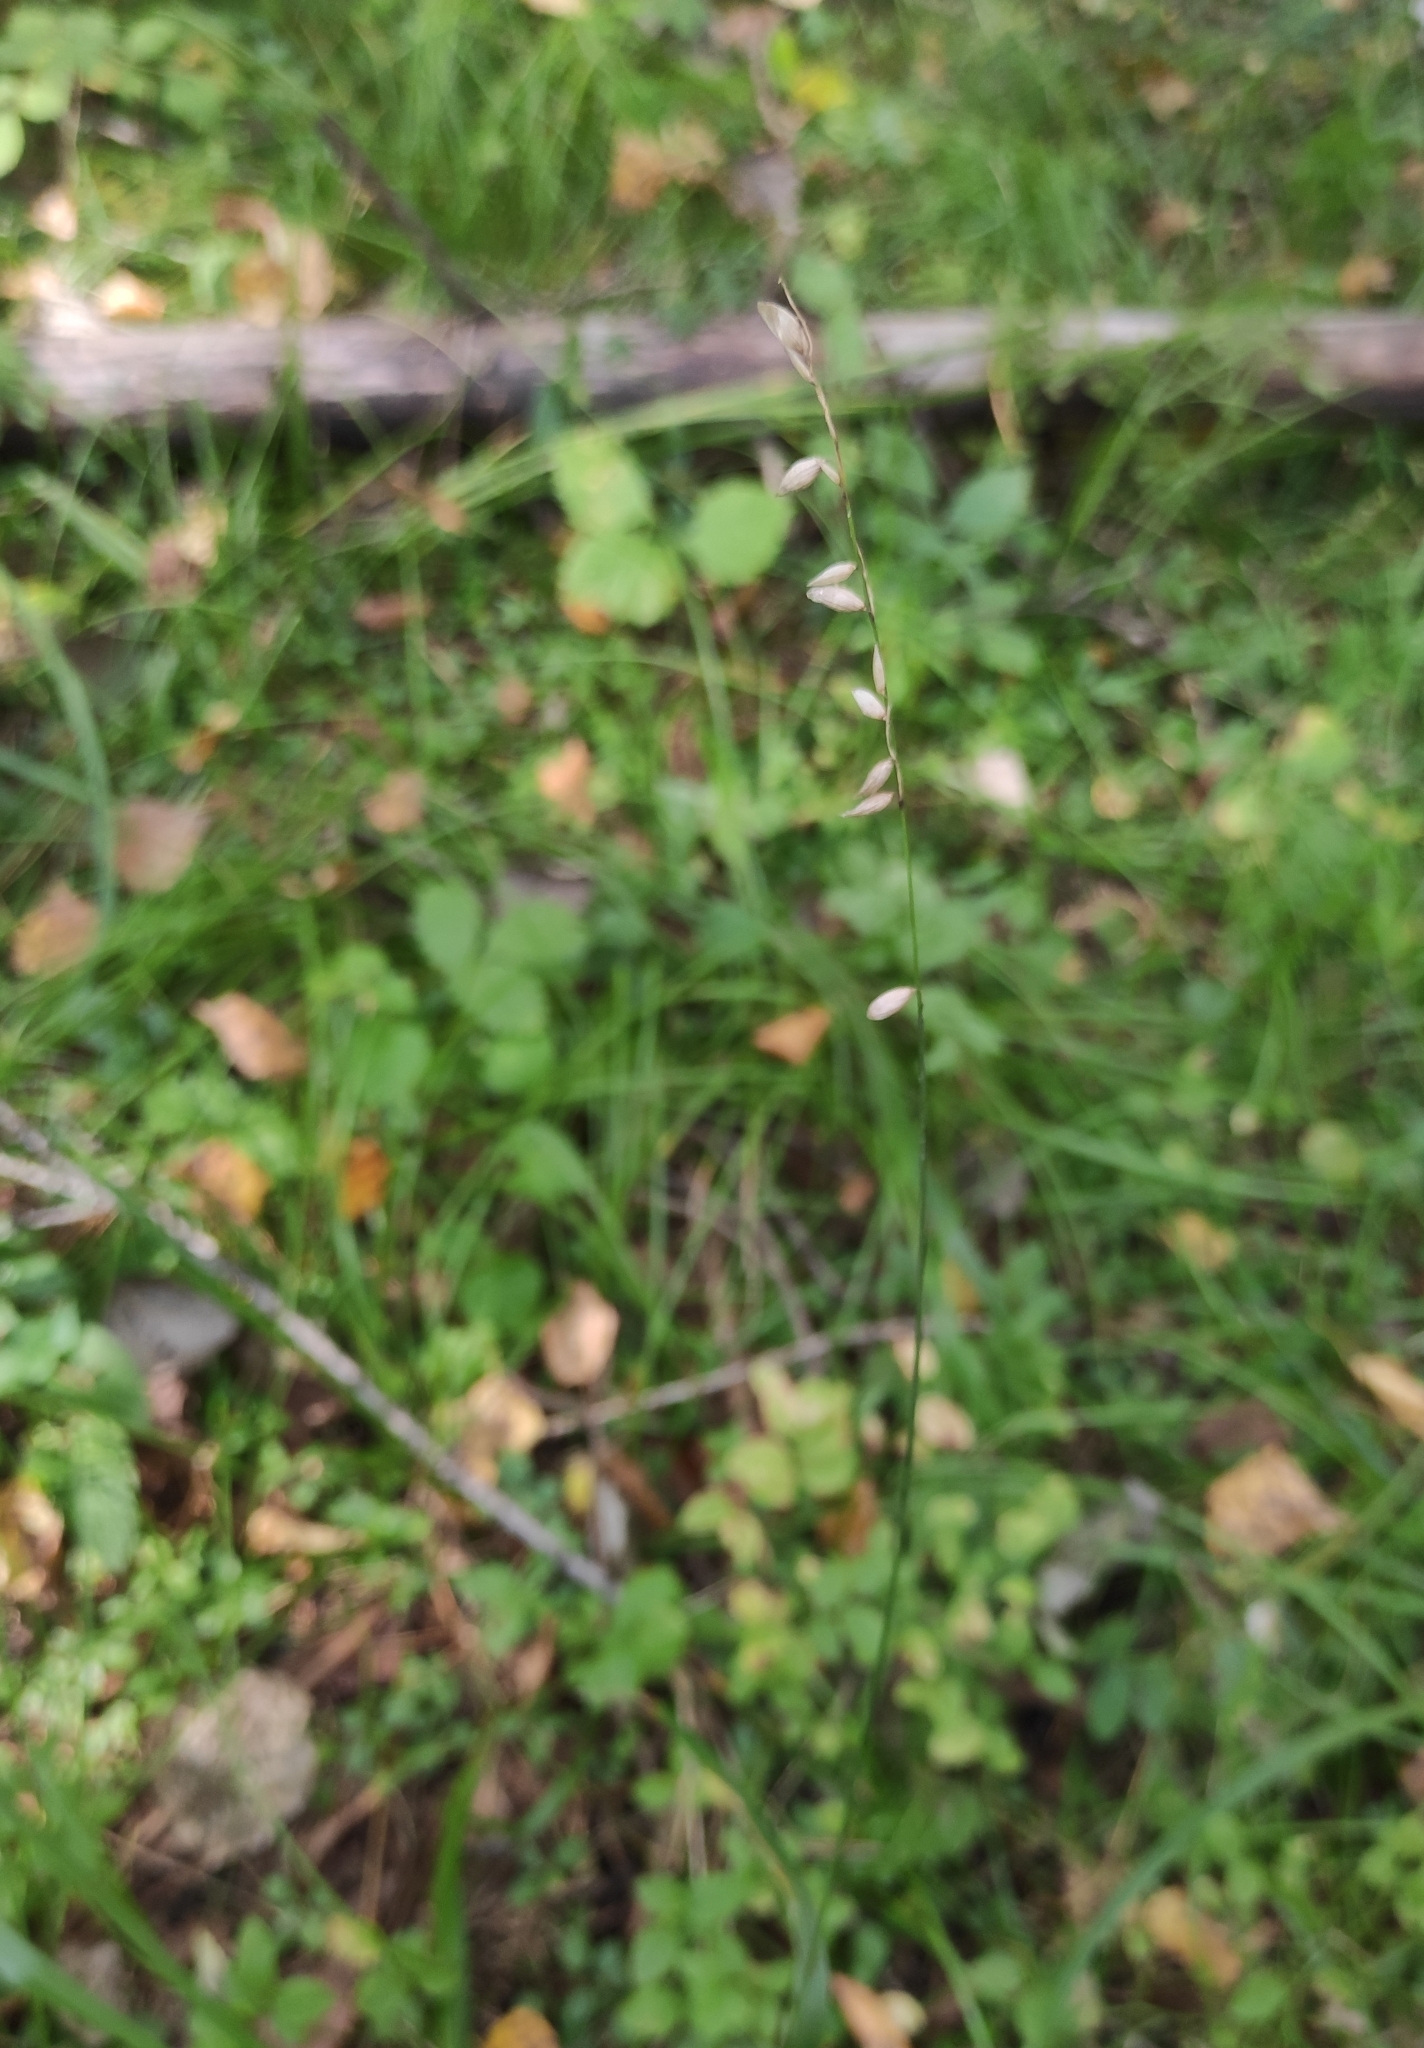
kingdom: Plantae
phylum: Tracheophyta
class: Liliopsida
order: Poales
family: Poaceae
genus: Melica
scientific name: Melica nutans
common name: Mountain melick
